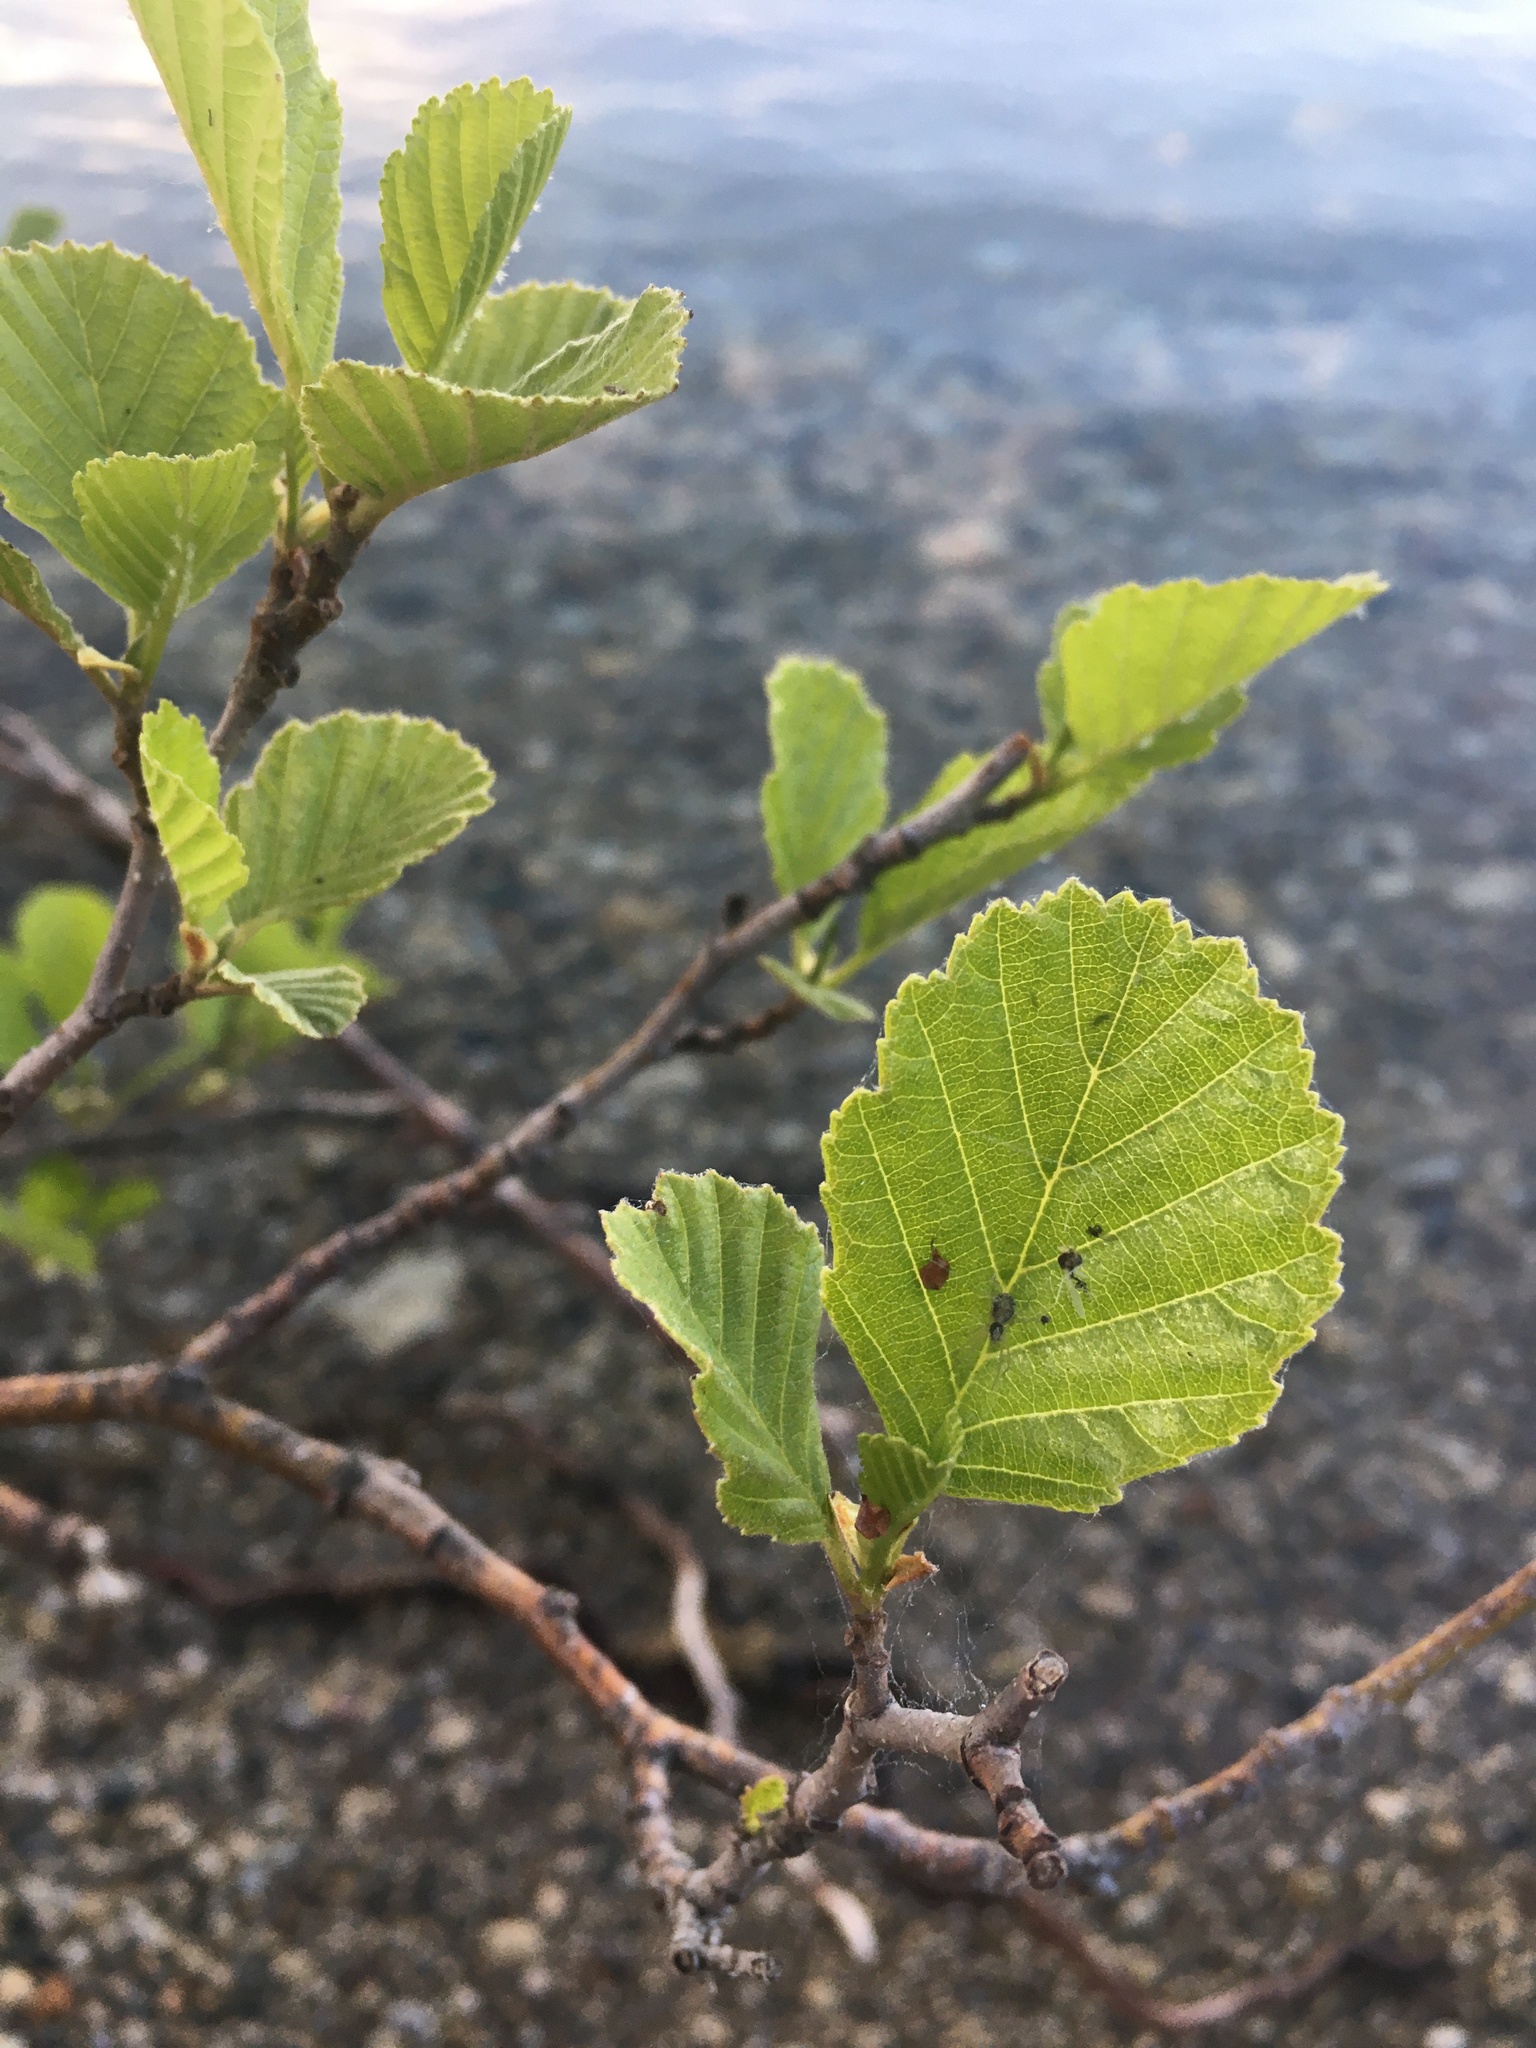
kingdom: Plantae
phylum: Tracheophyta
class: Magnoliopsida
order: Fagales
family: Betulaceae
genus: Alnus
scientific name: Alnus glutinosa
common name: Black alder
